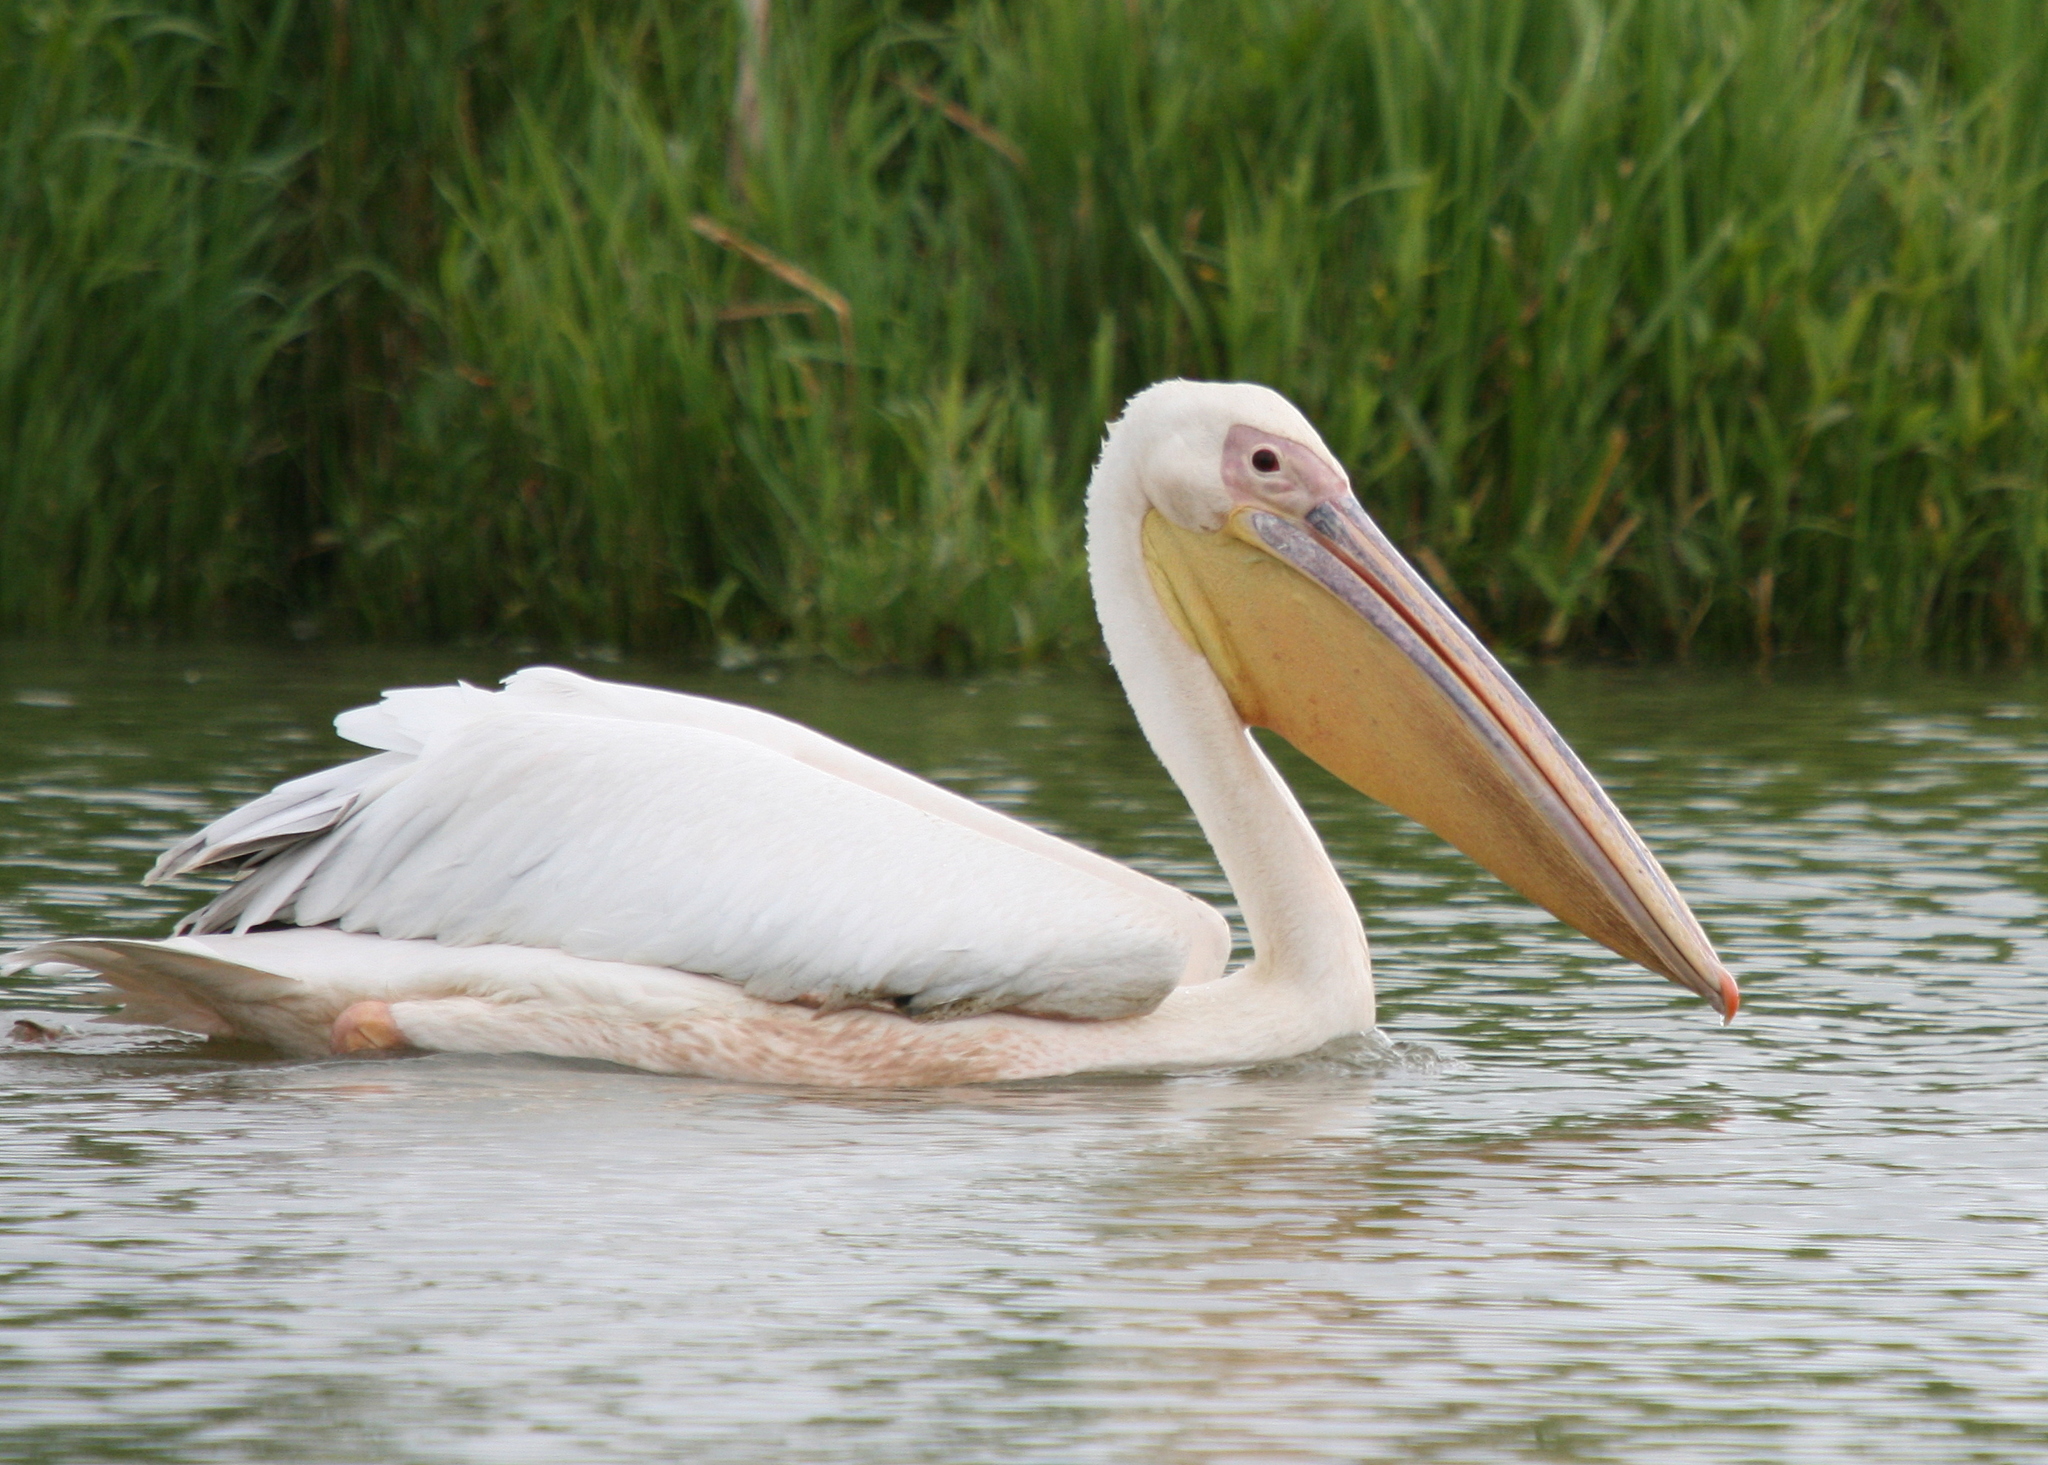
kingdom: Animalia
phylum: Chordata
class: Aves
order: Pelecaniformes
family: Pelecanidae
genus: Pelecanus
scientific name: Pelecanus onocrotalus
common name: Great white pelican
